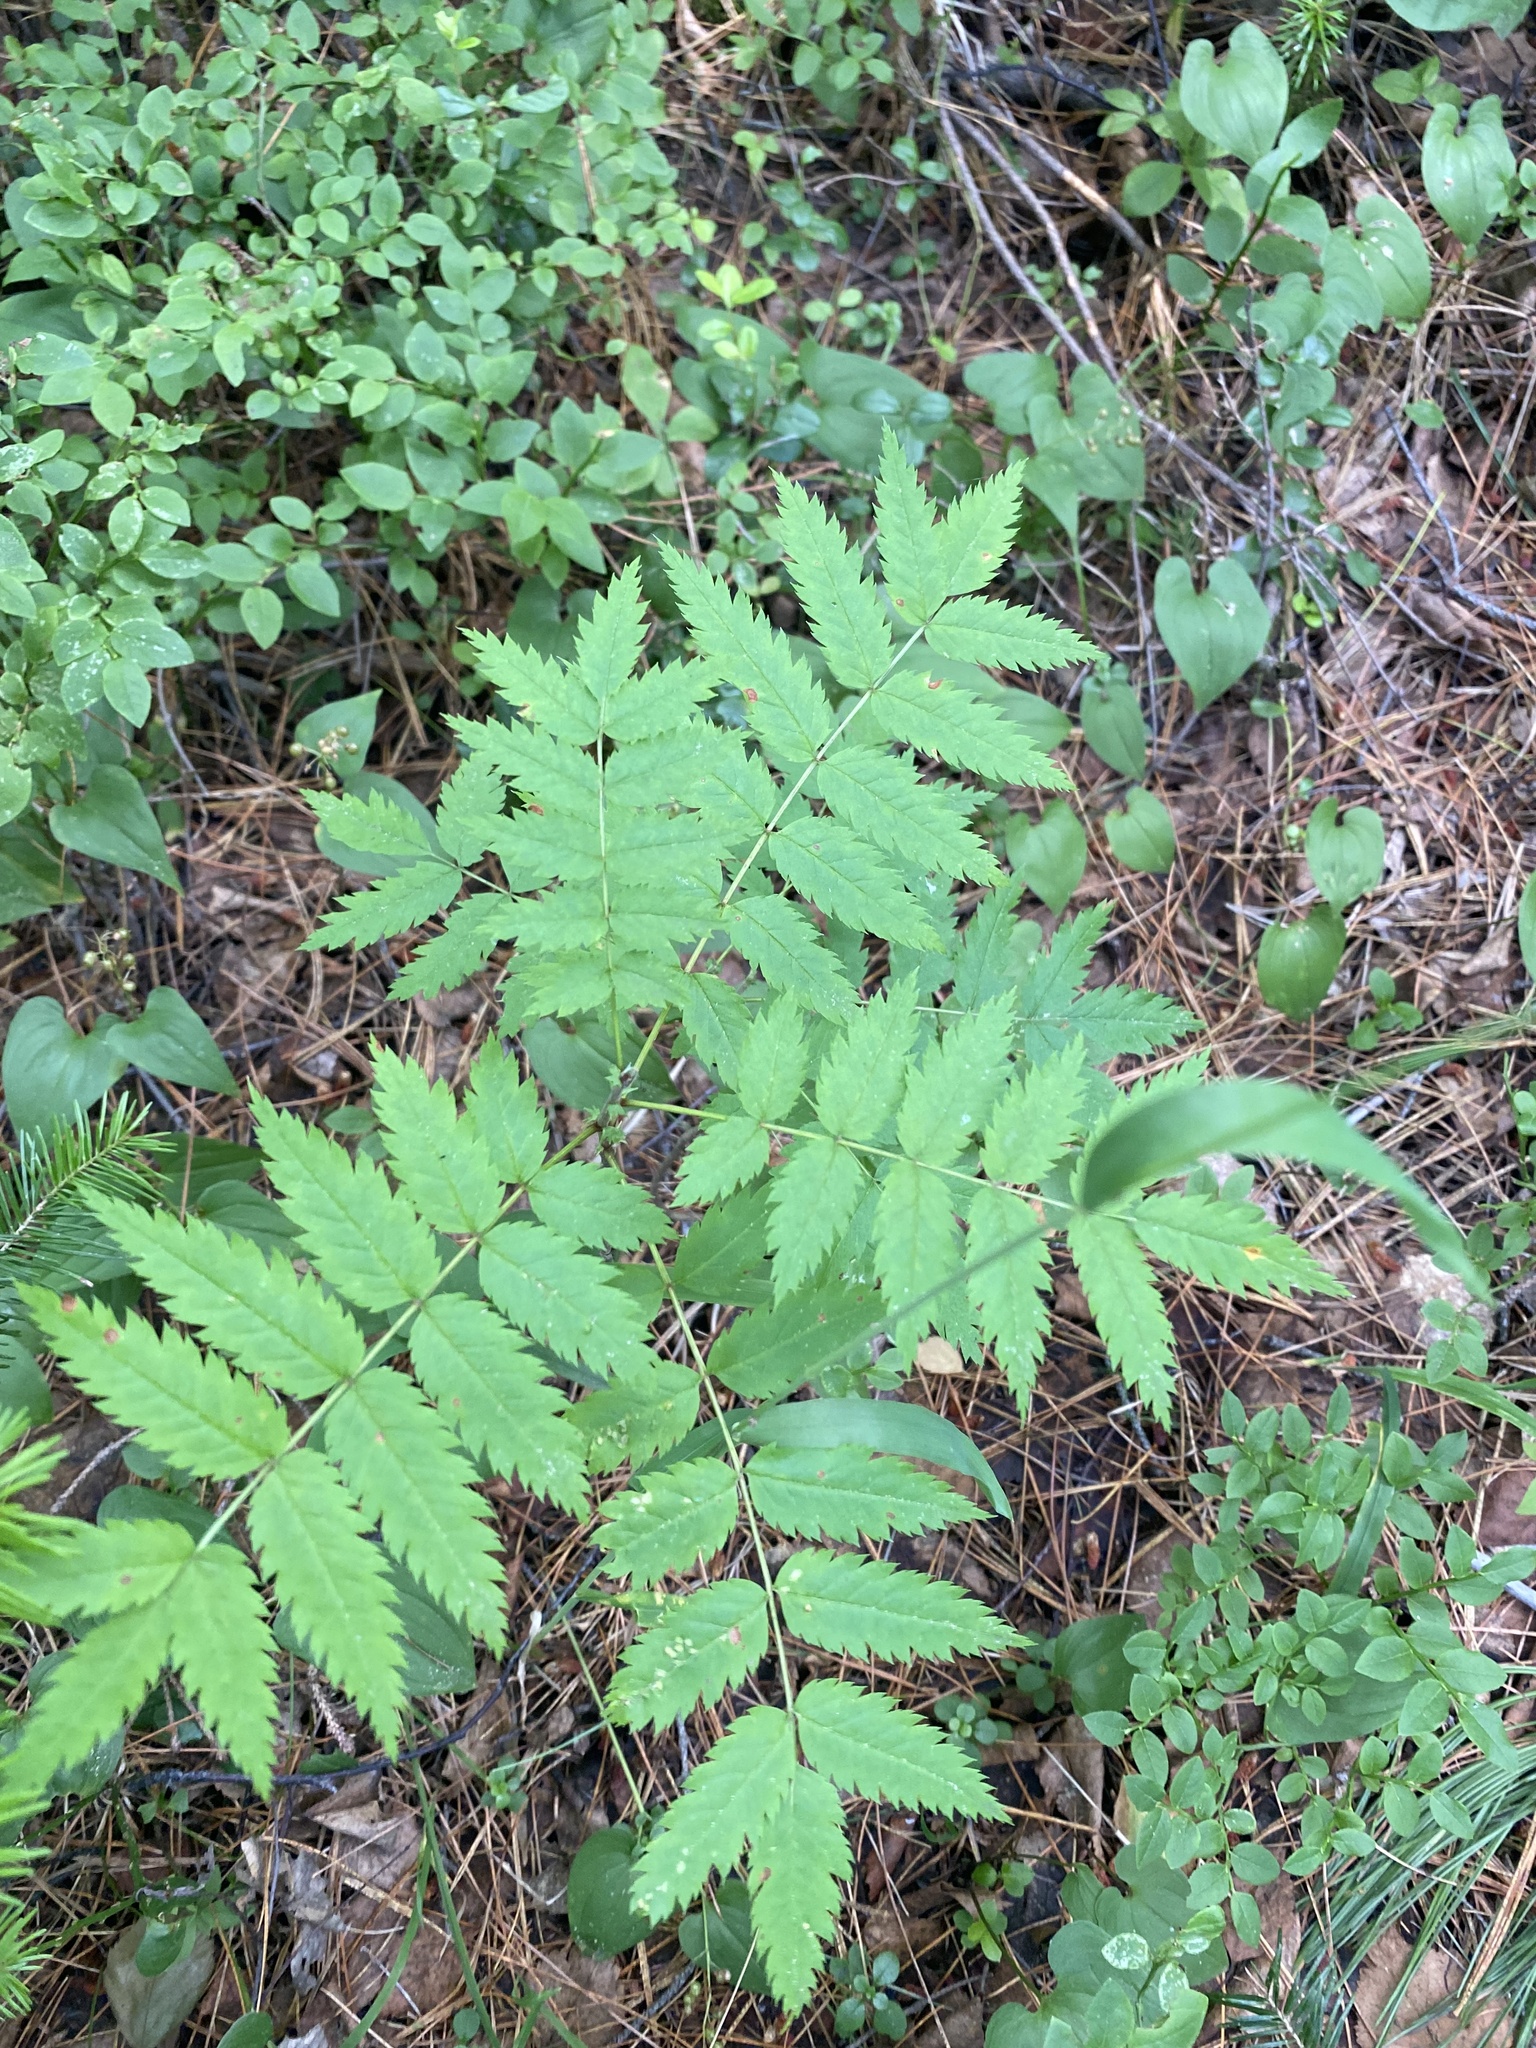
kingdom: Plantae
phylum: Tracheophyta
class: Magnoliopsida
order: Rosales
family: Rosaceae
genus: Sorbus
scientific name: Sorbus aucuparia
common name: Rowan
